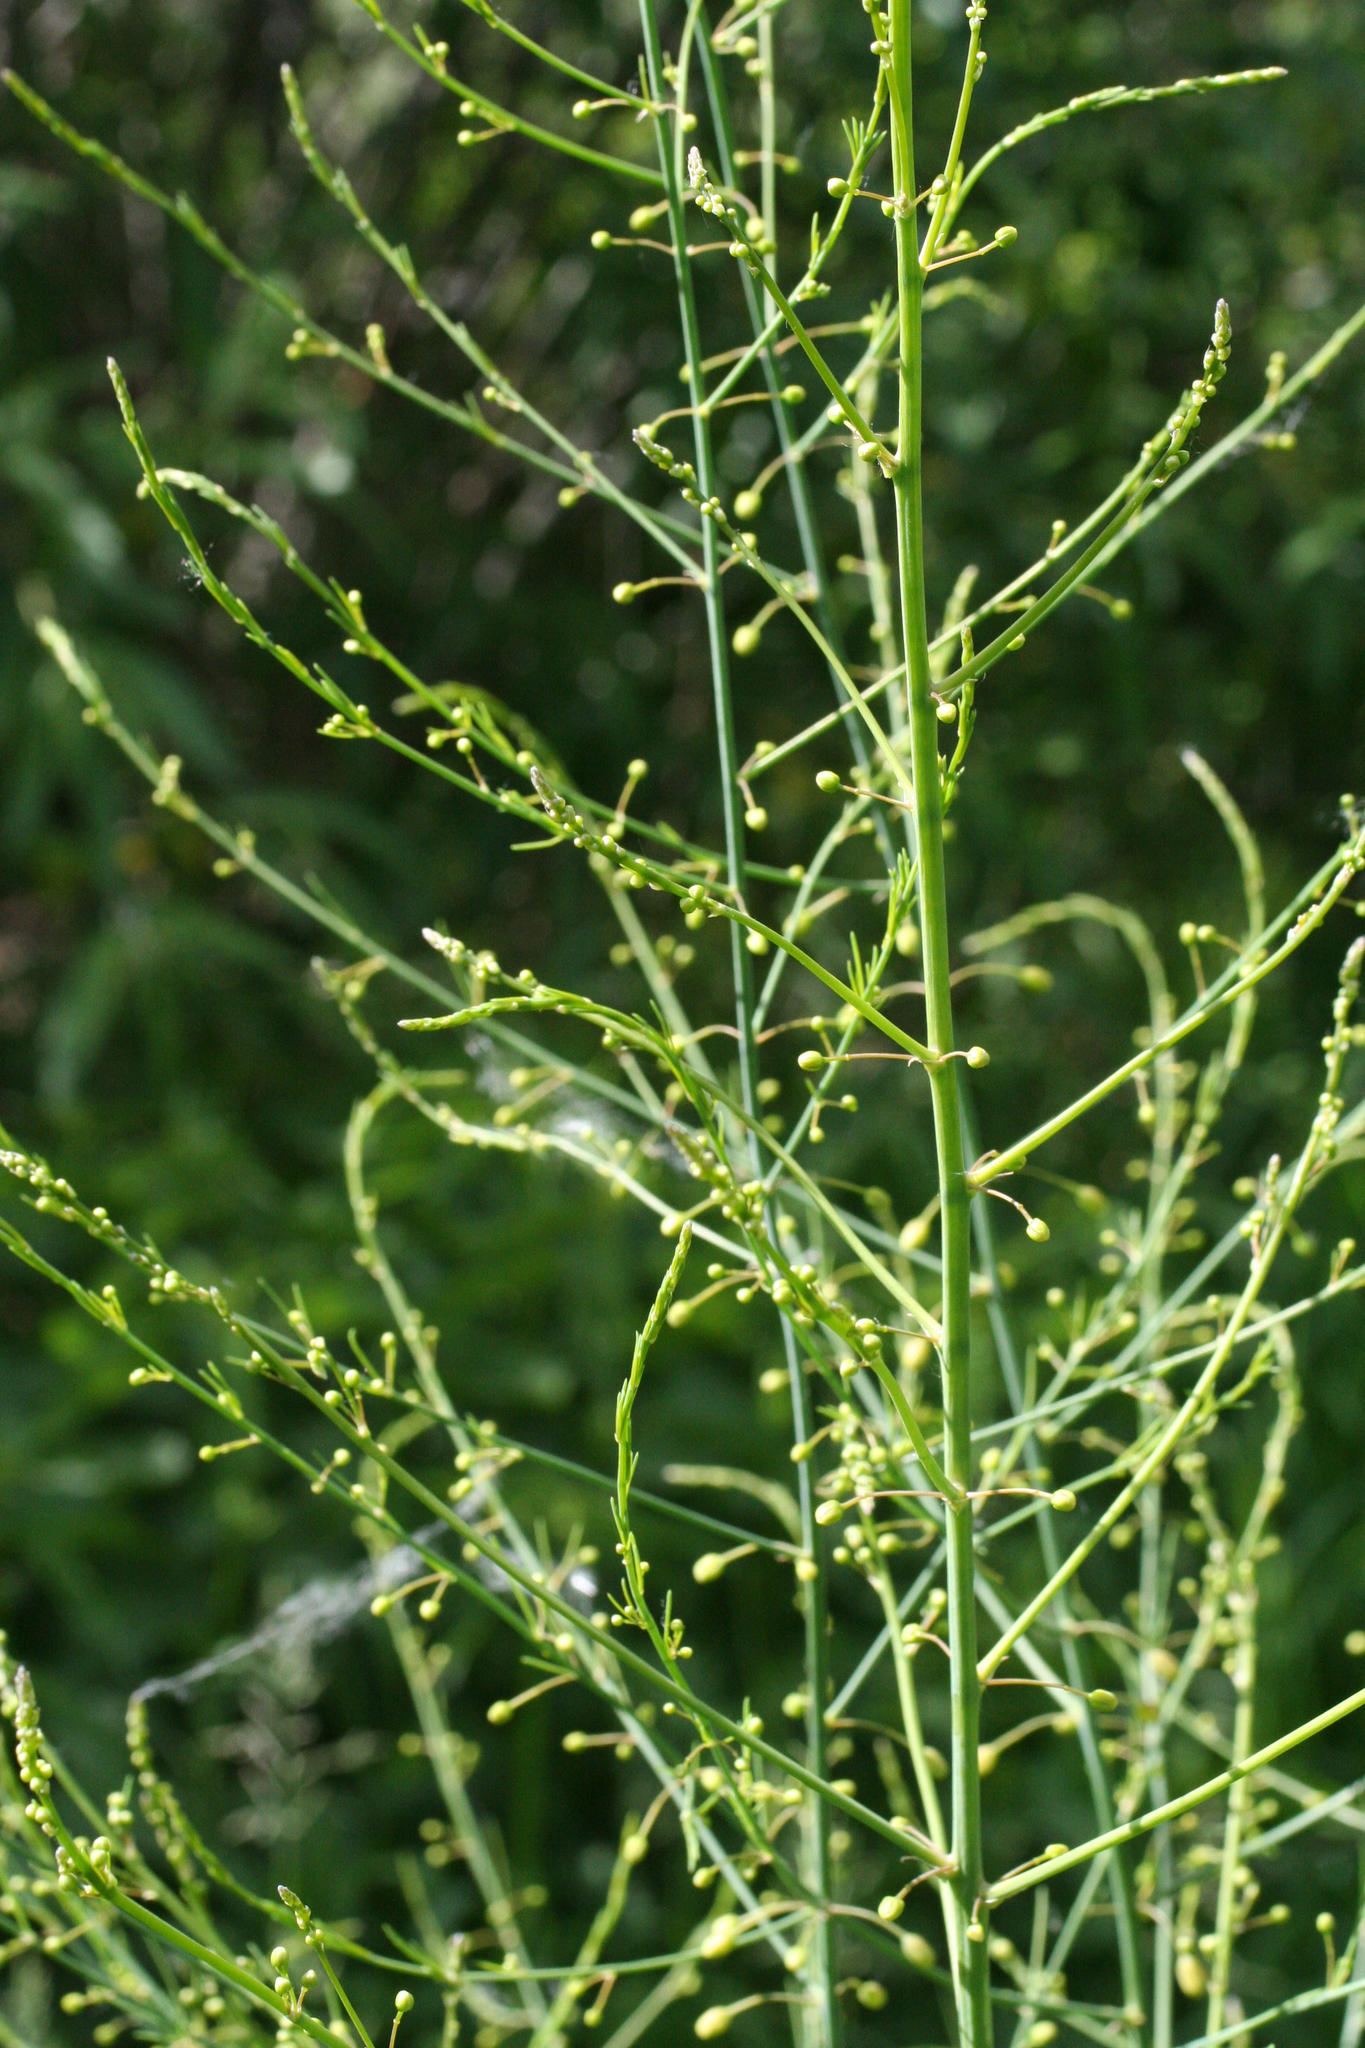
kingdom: Plantae
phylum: Tracheophyta
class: Liliopsida
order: Asparagales
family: Asparagaceae
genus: Asparagus
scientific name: Asparagus officinalis
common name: Garden asparagus
